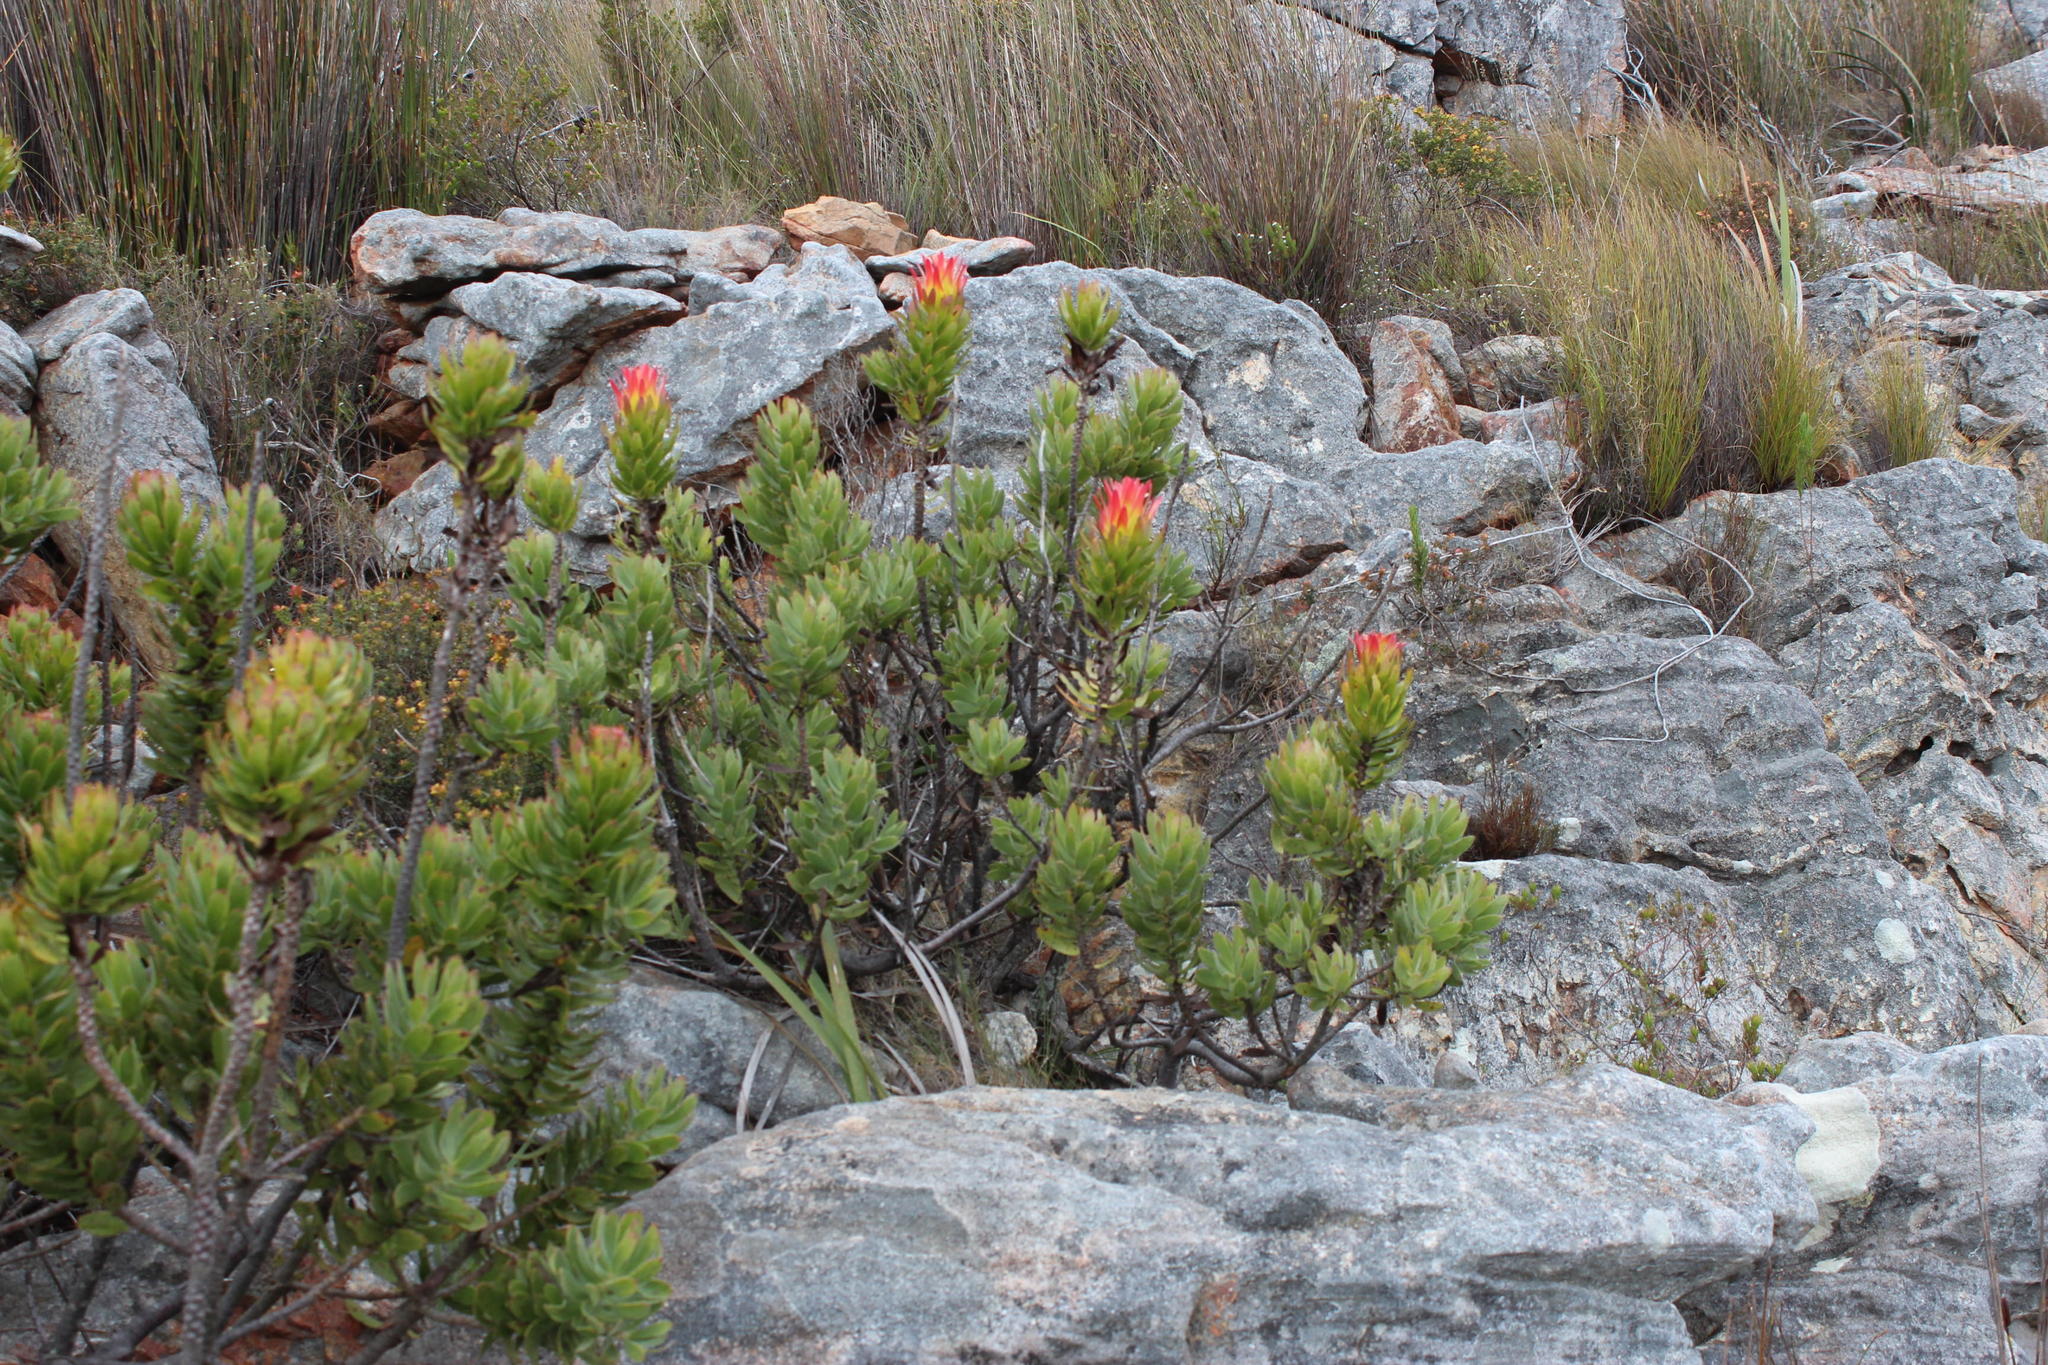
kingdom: Plantae
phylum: Tracheophyta
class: Magnoliopsida
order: Proteales
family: Proteaceae
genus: Mimetes
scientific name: Mimetes cucullatus
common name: Common pagoda
